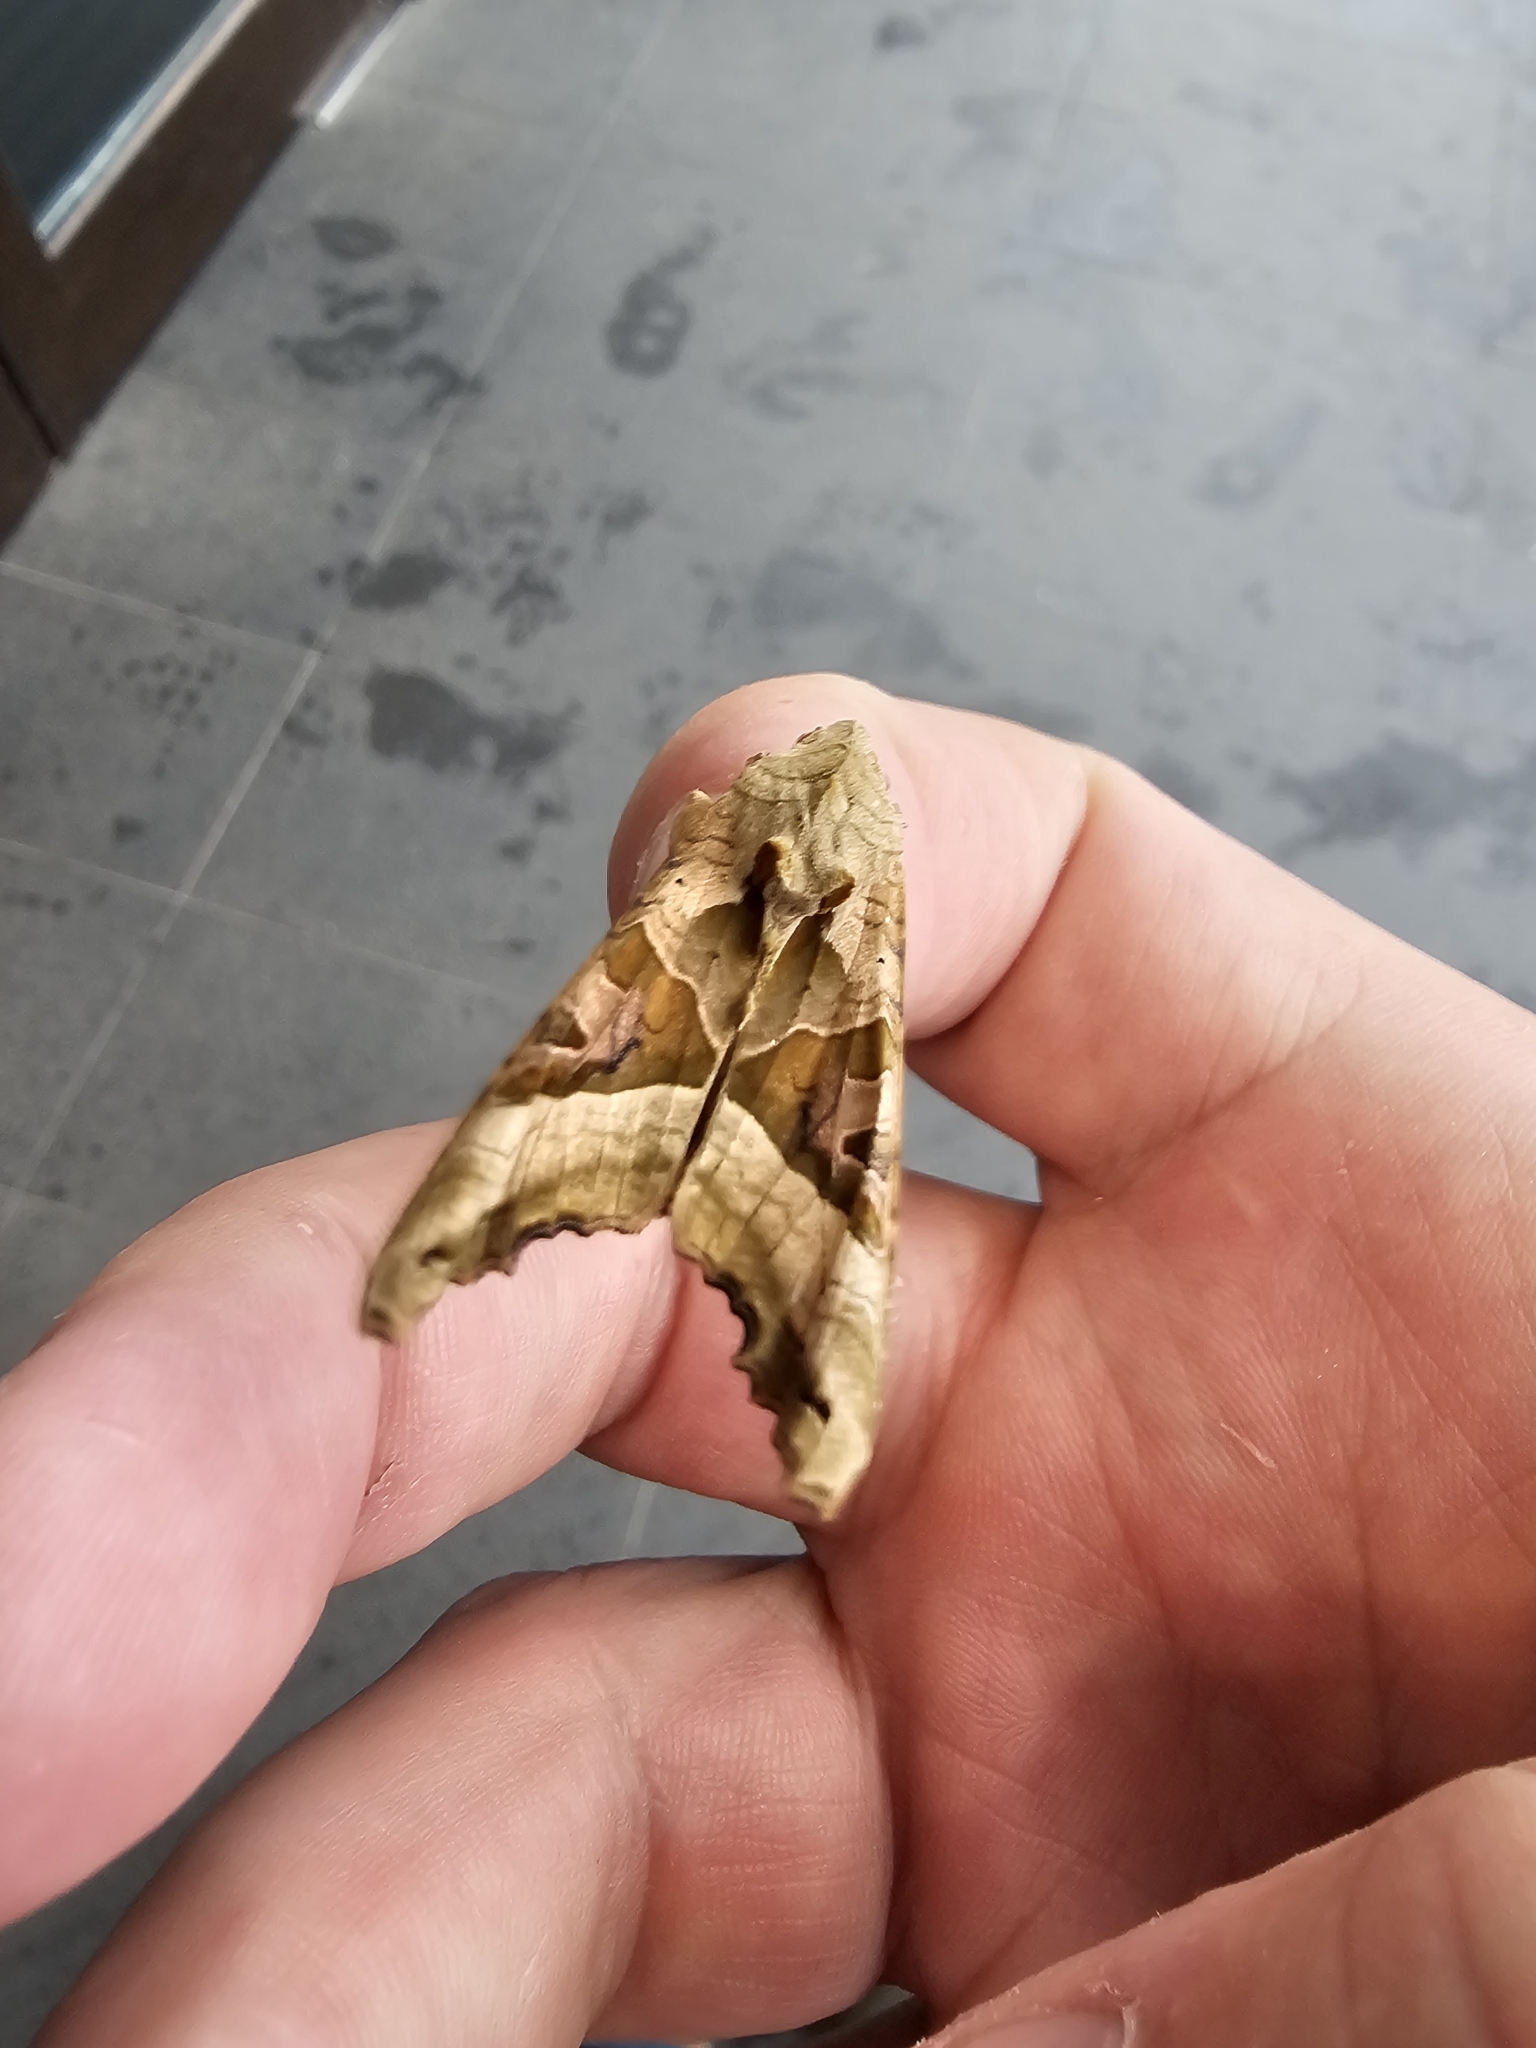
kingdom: Animalia
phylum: Arthropoda
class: Insecta
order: Lepidoptera
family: Noctuidae
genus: Phlogophora
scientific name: Phlogophora meticulosa
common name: Angle shades
